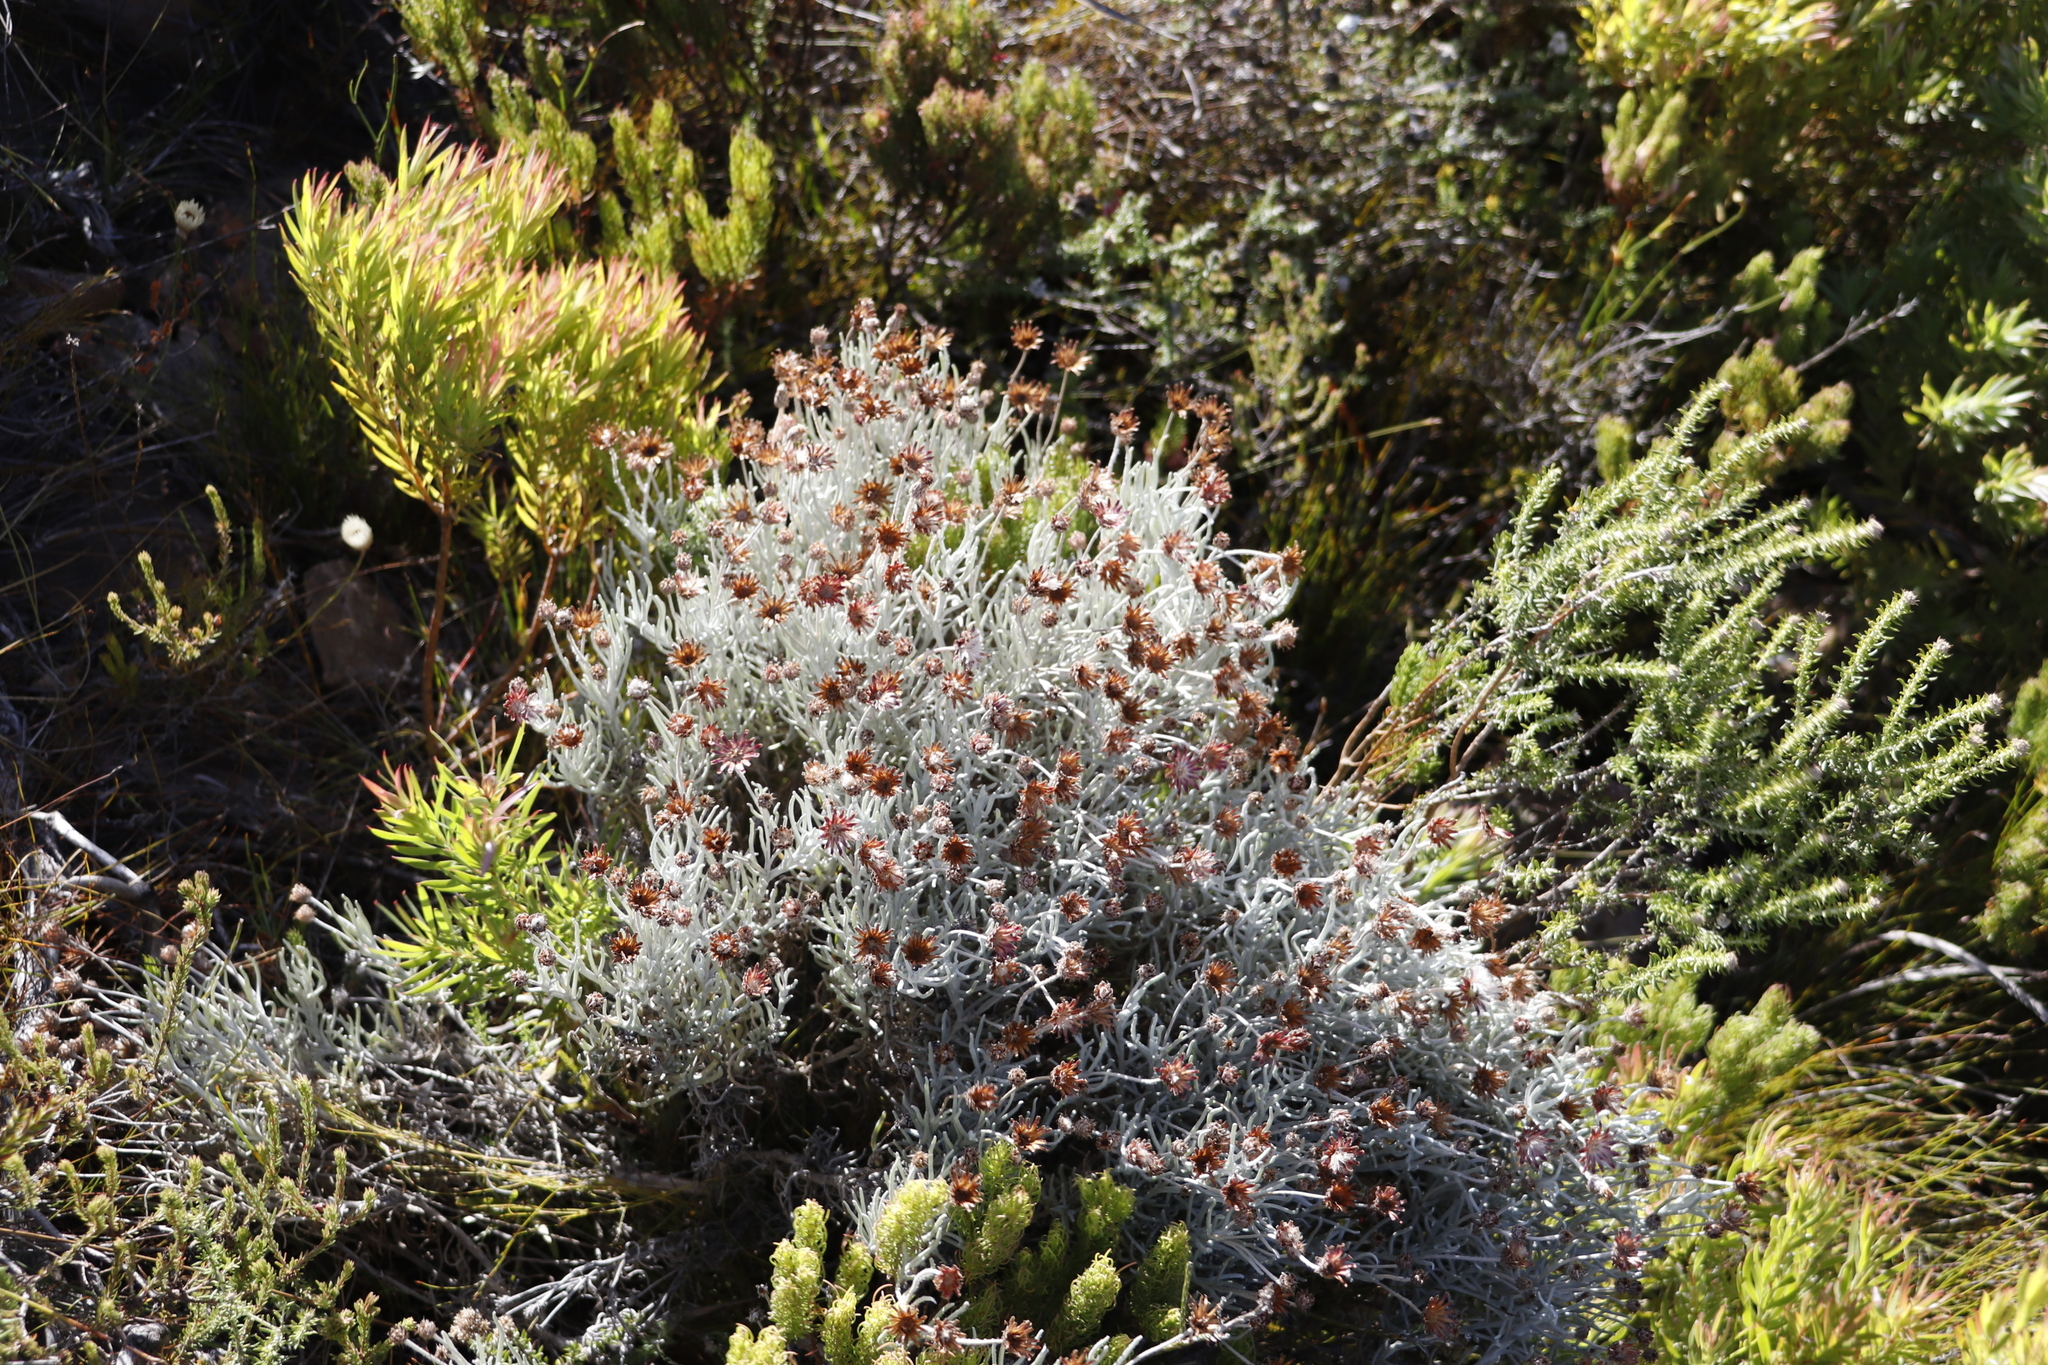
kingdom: Plantae
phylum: Tracheophyta
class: Magnoliopsida
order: Asterales
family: Asteraceae
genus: Syncarpha
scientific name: Syncarpha gnaphaloides
